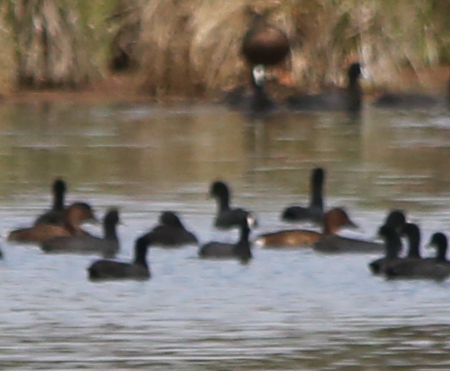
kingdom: Animalia
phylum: Chordata
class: Aves
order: Gruiformes
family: Rallidae
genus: Fulica
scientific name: Fulica atra
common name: Eurasian coot
